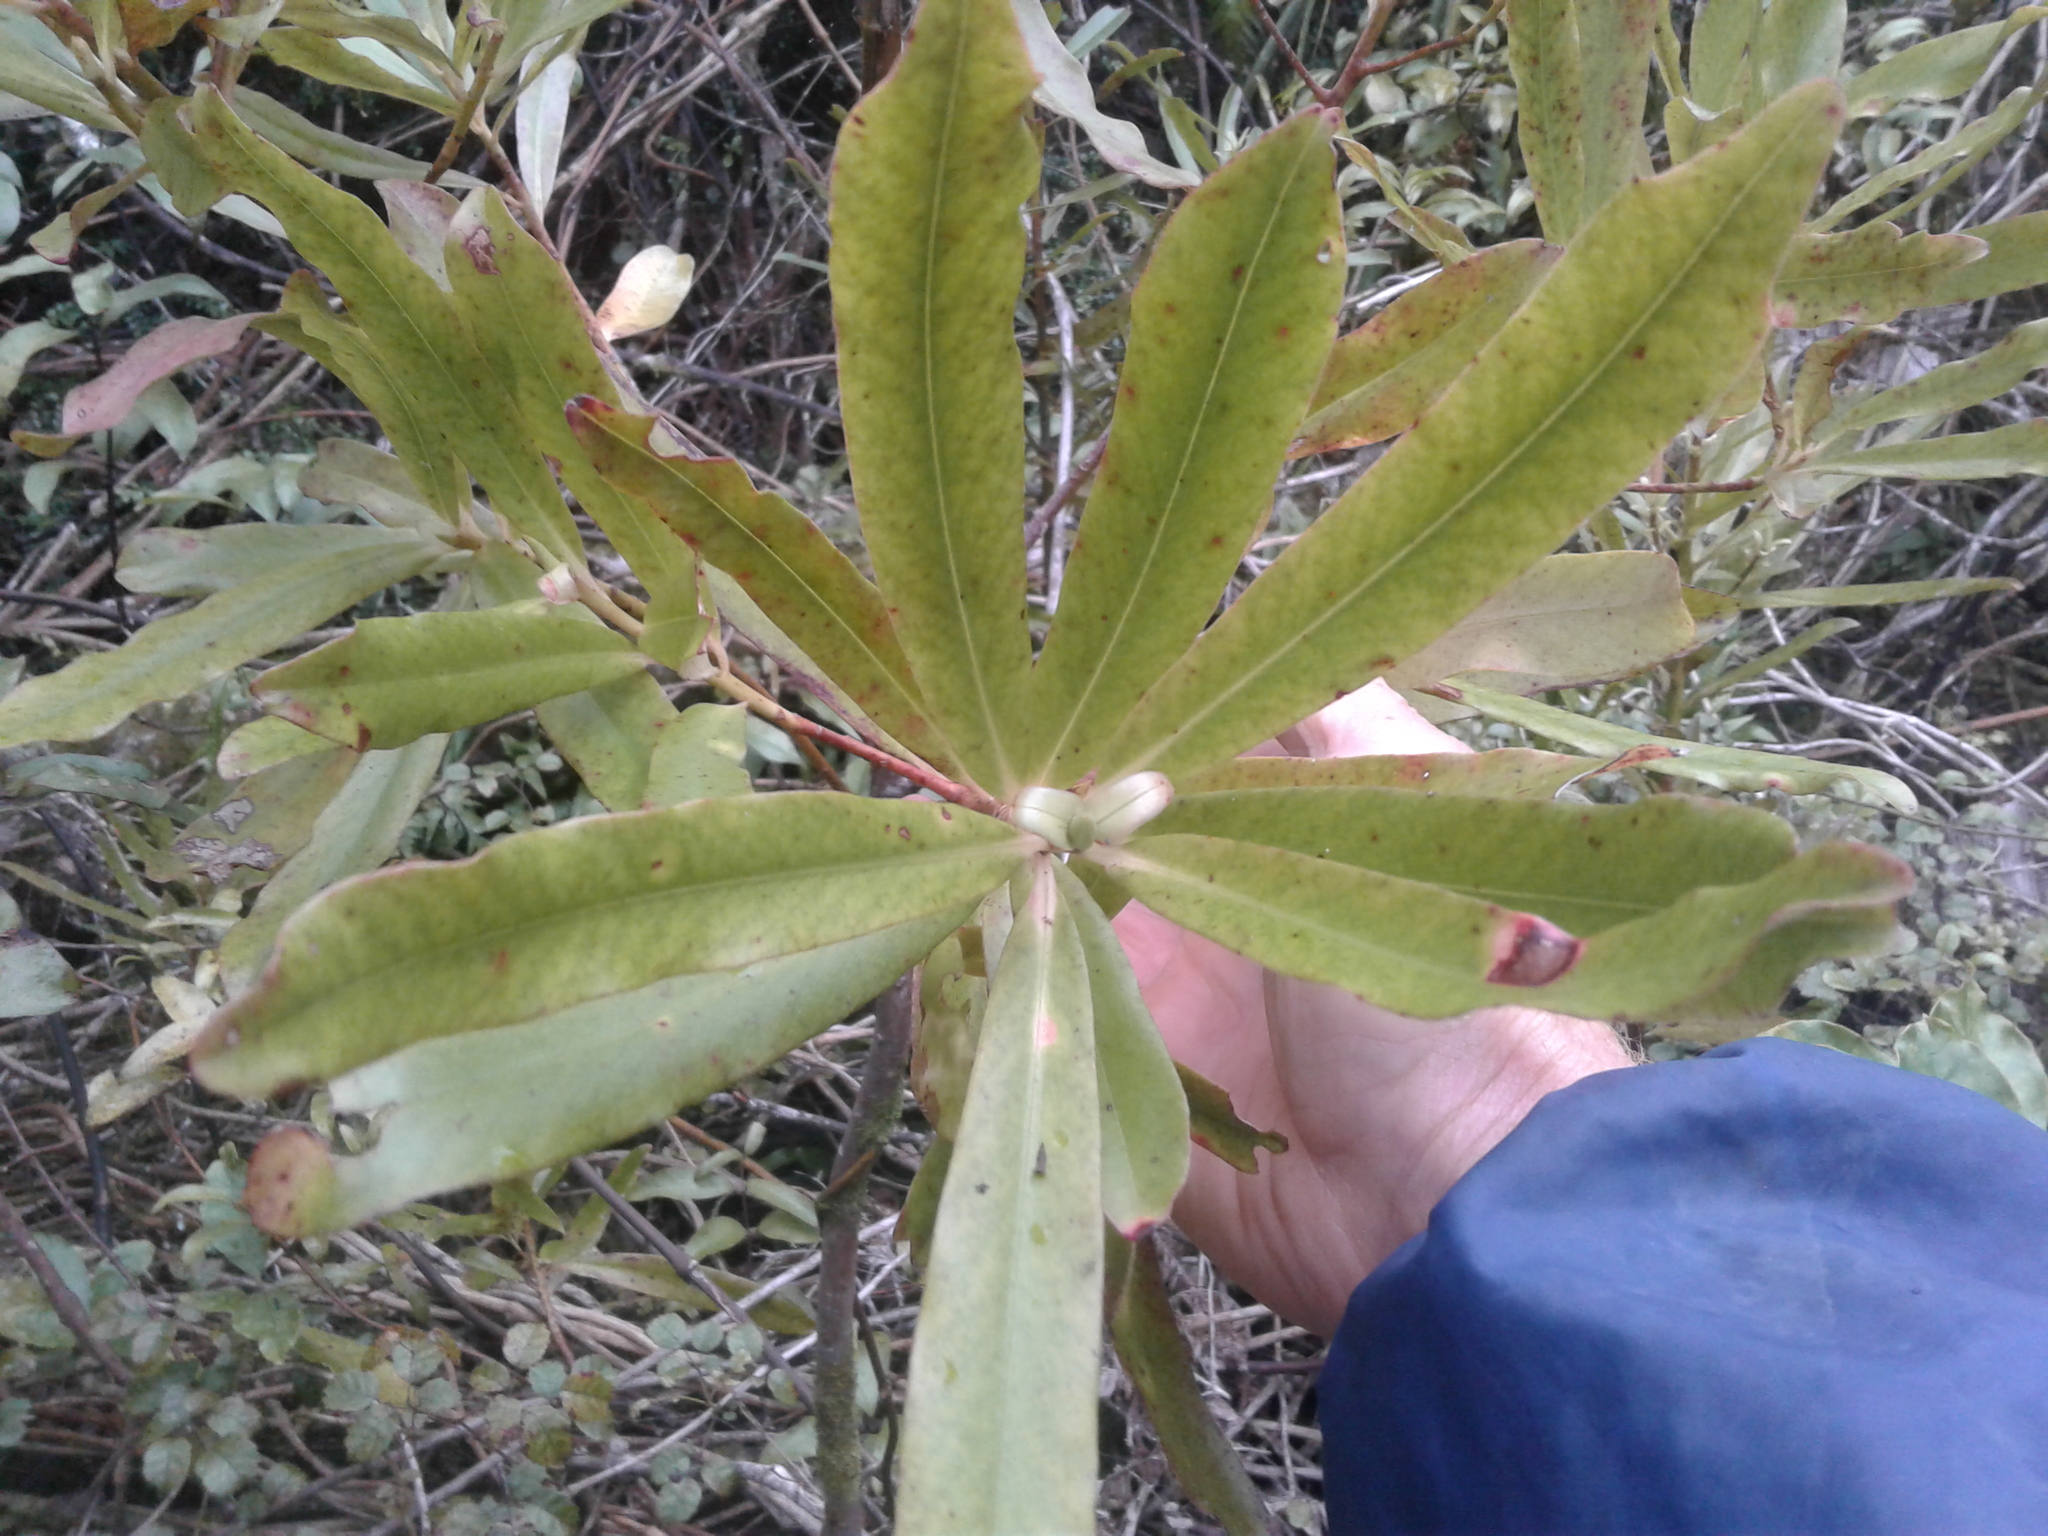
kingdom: Plantae
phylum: Tracheophyta
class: Magnoliopsida
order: Ericales
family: Primulaceae
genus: Myrsine
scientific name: Myrsine salicina
